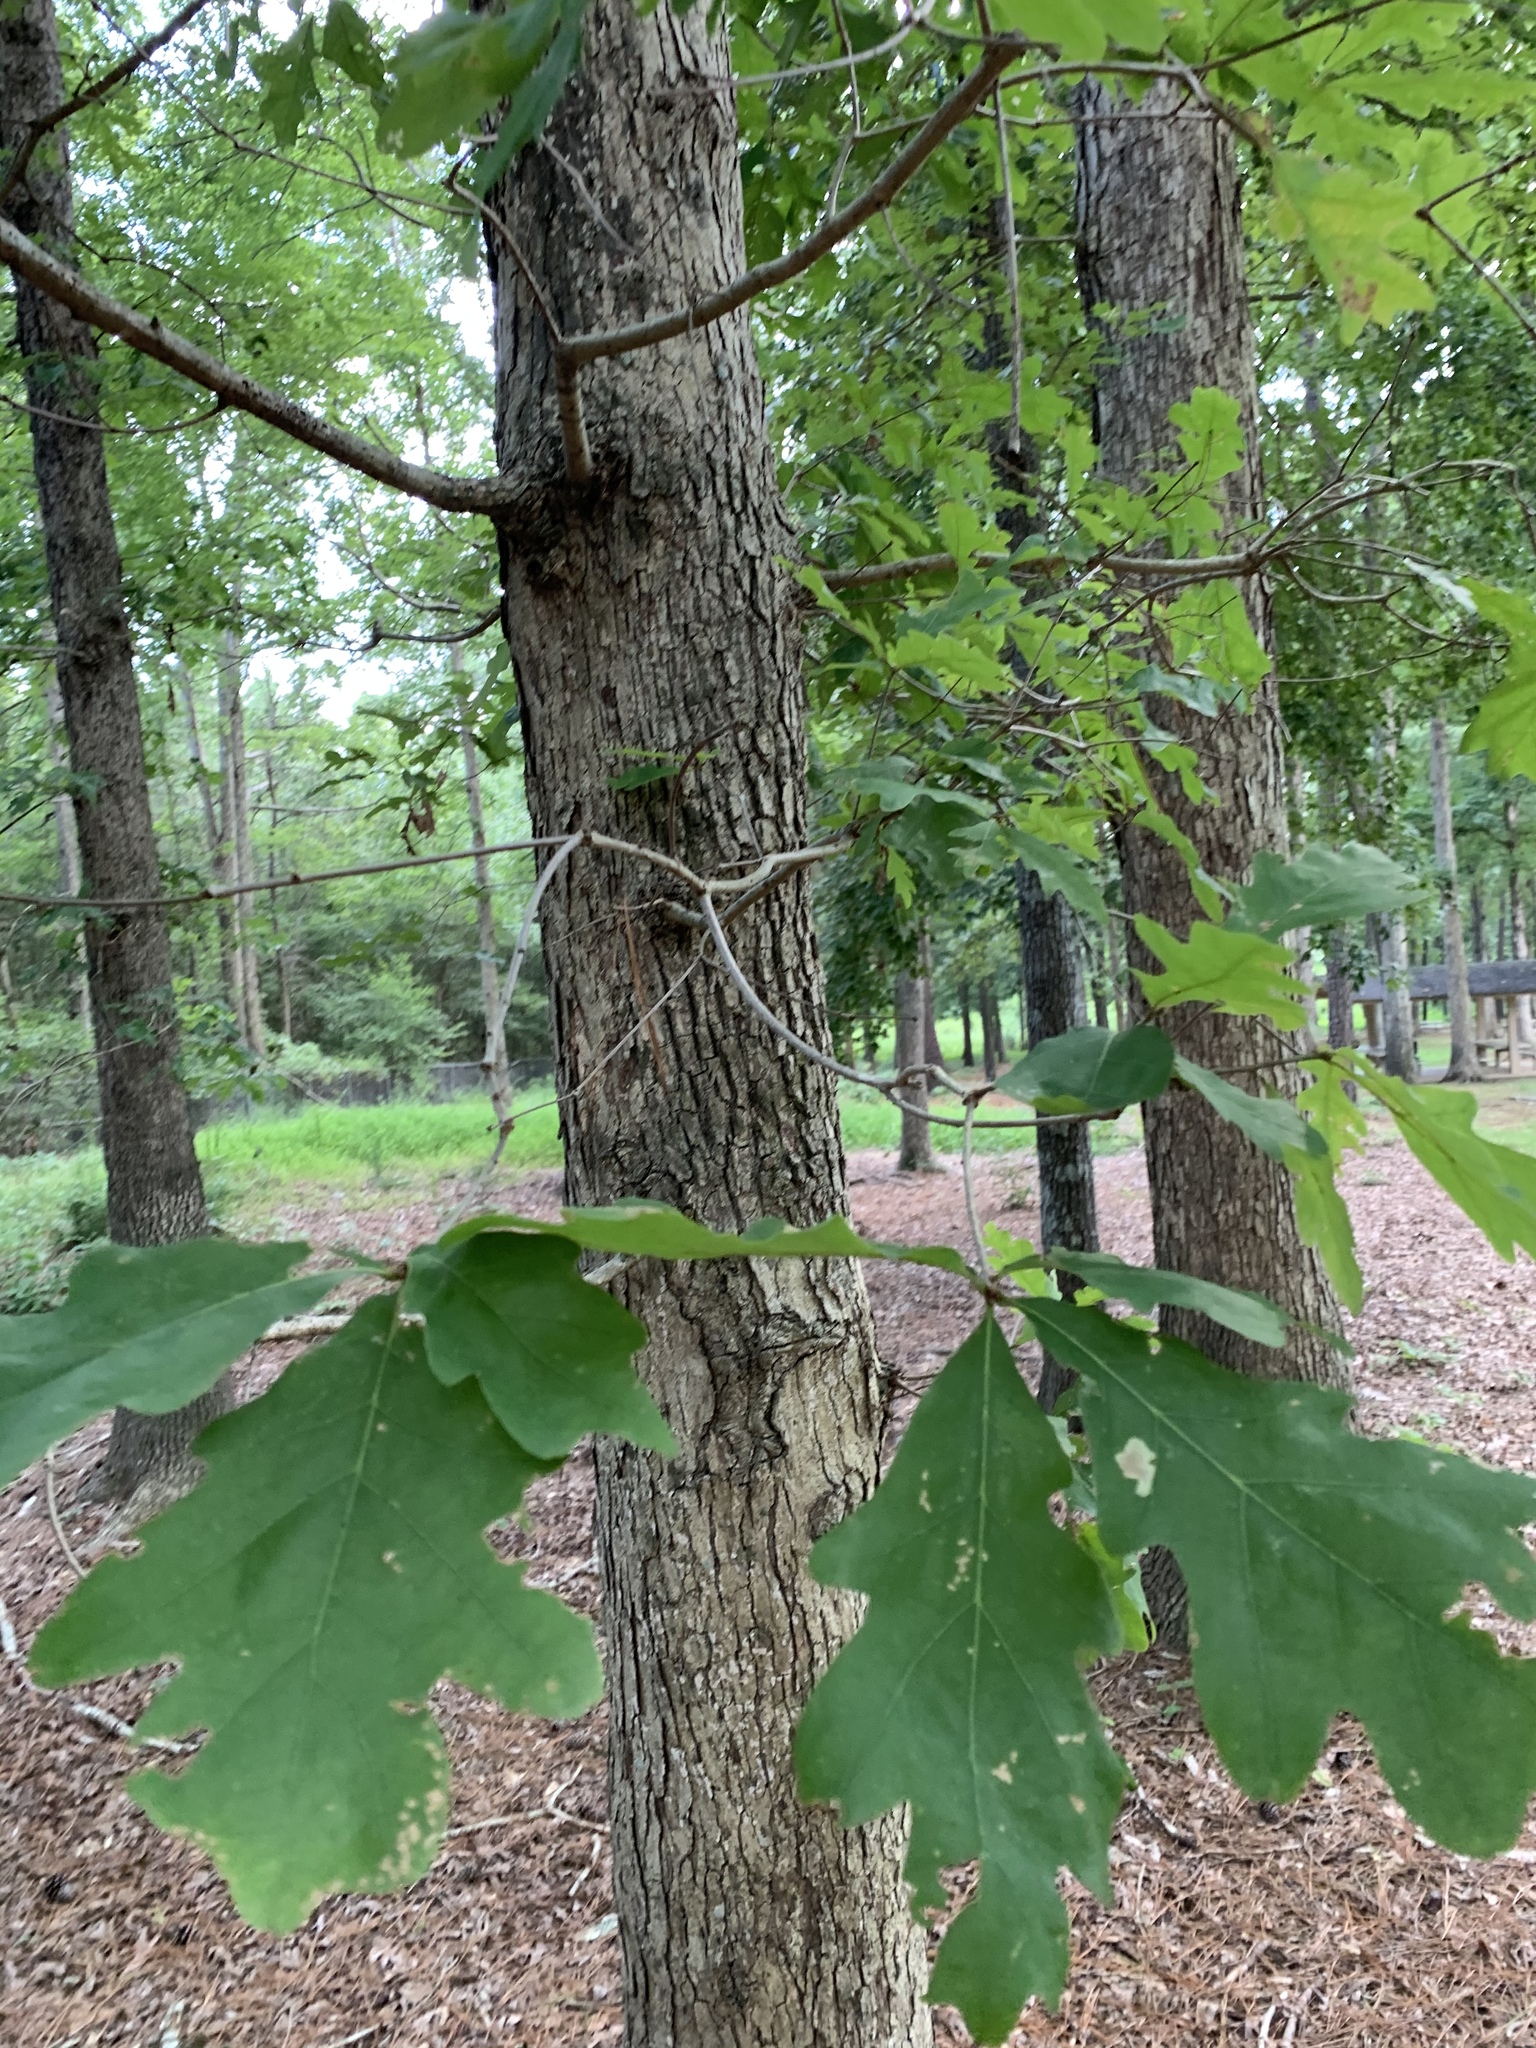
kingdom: Plantae
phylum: Tracheophyta
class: Magnoliopsida
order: Fagales
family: Fagaceae
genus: Quercus
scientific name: Quercus alba
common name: White oak
